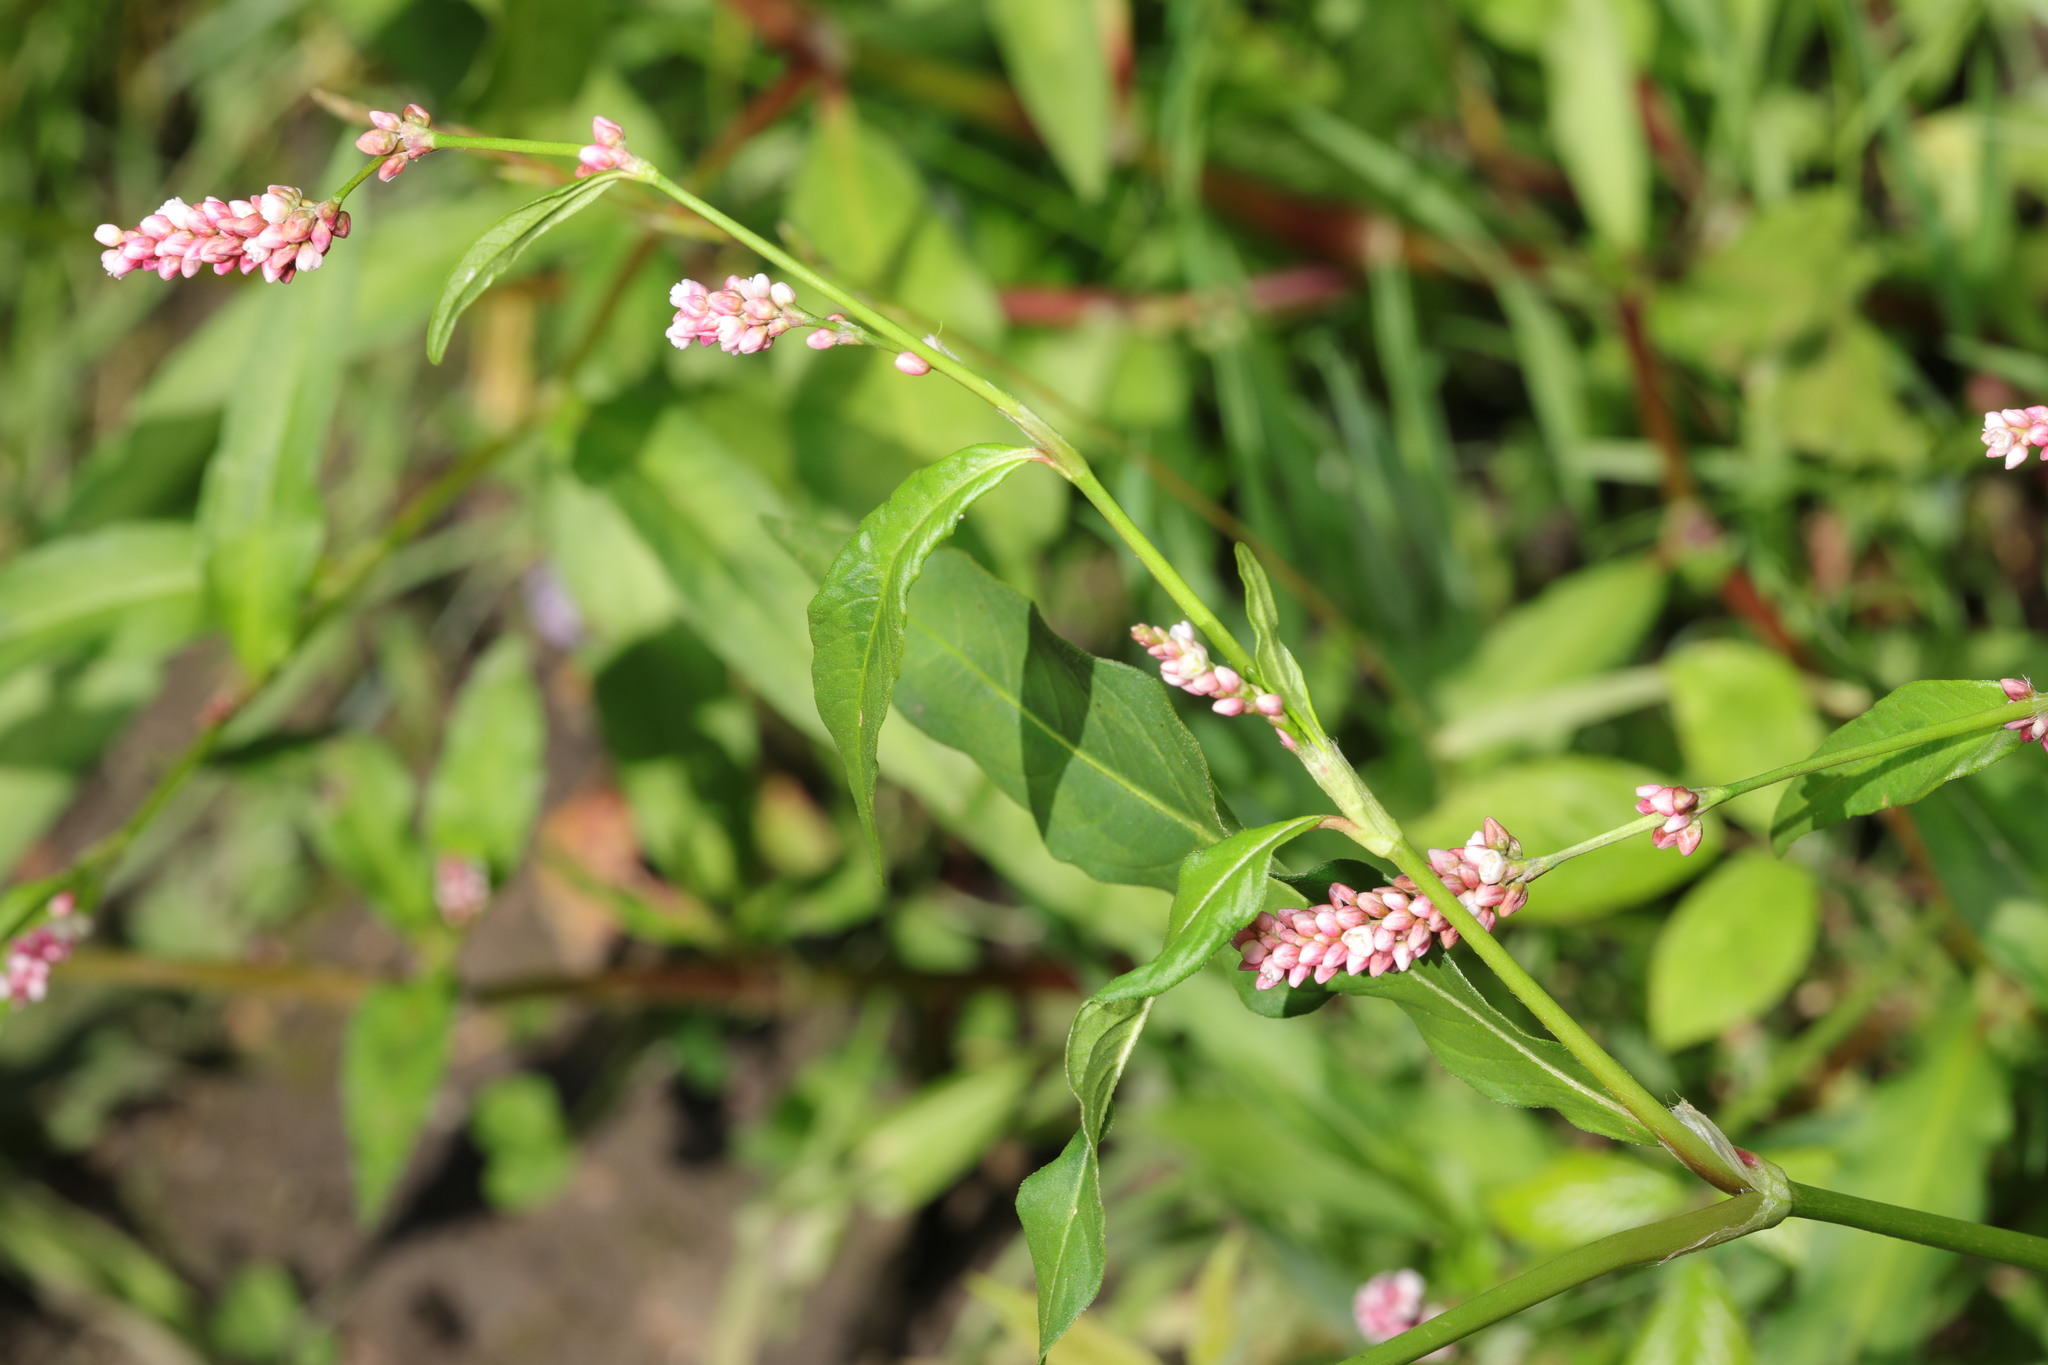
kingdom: Plantae
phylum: Tracheophyta
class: Magnoliopsida
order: Caryophyllales
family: Polygonaceae
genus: Persicaria
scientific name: Persicaria maculosa
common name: Redshank
